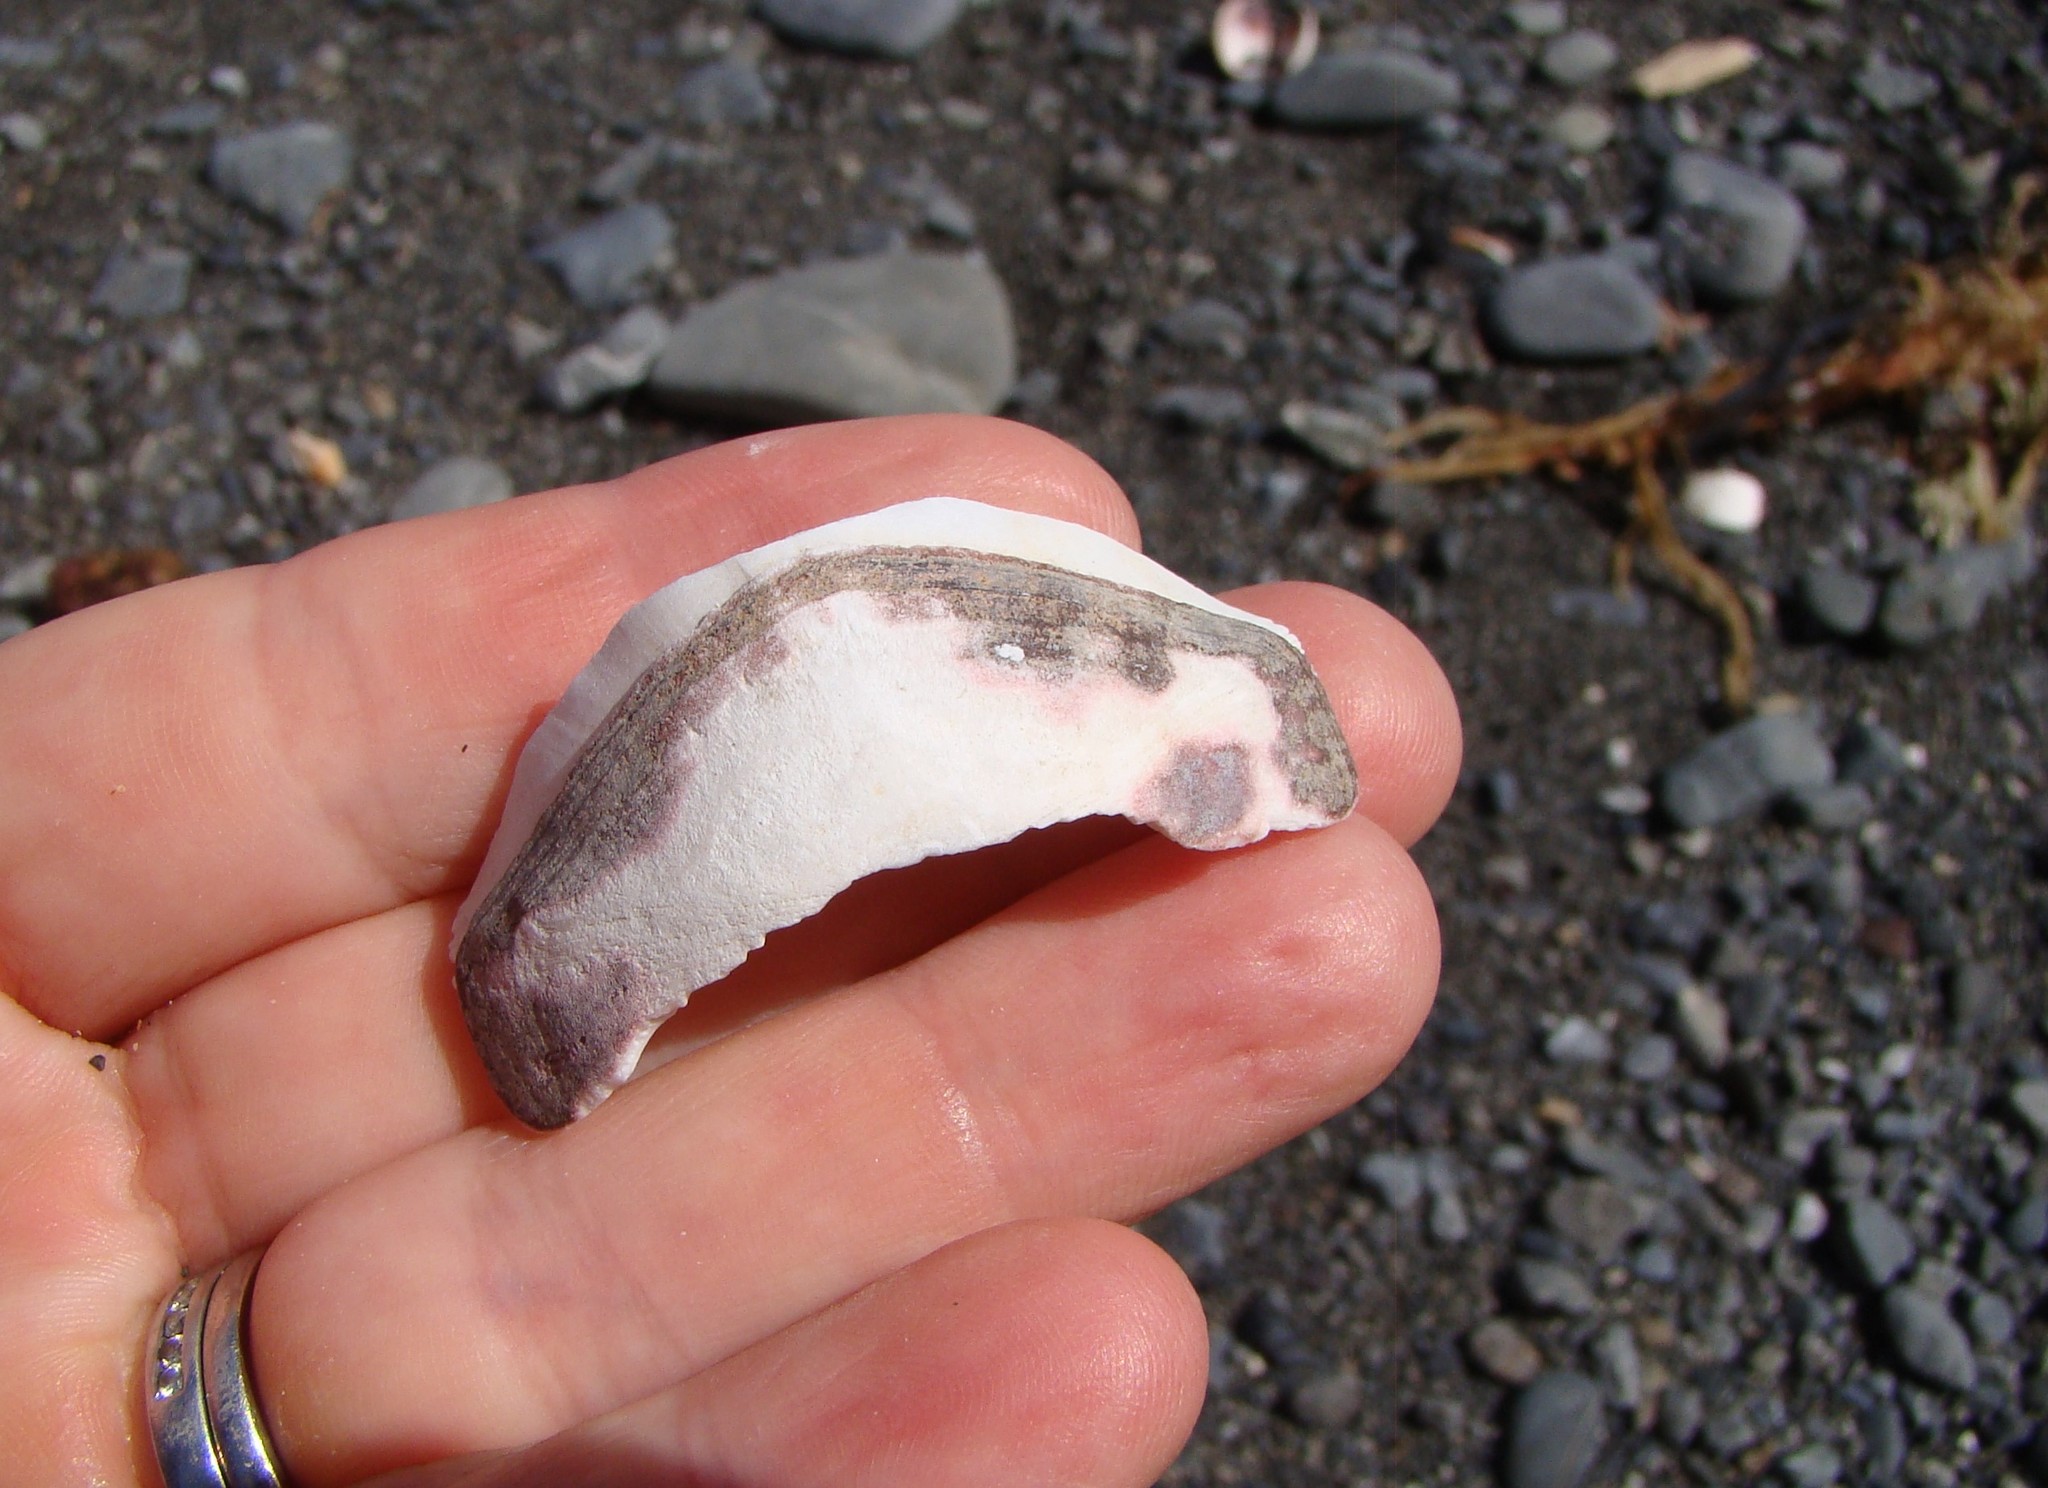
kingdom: Animalia
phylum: Mollusca
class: Polyplacophora
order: Callochitonida
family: Callochitonidae
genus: Eudoxochiton
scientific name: Eudoxochiton nobilis
